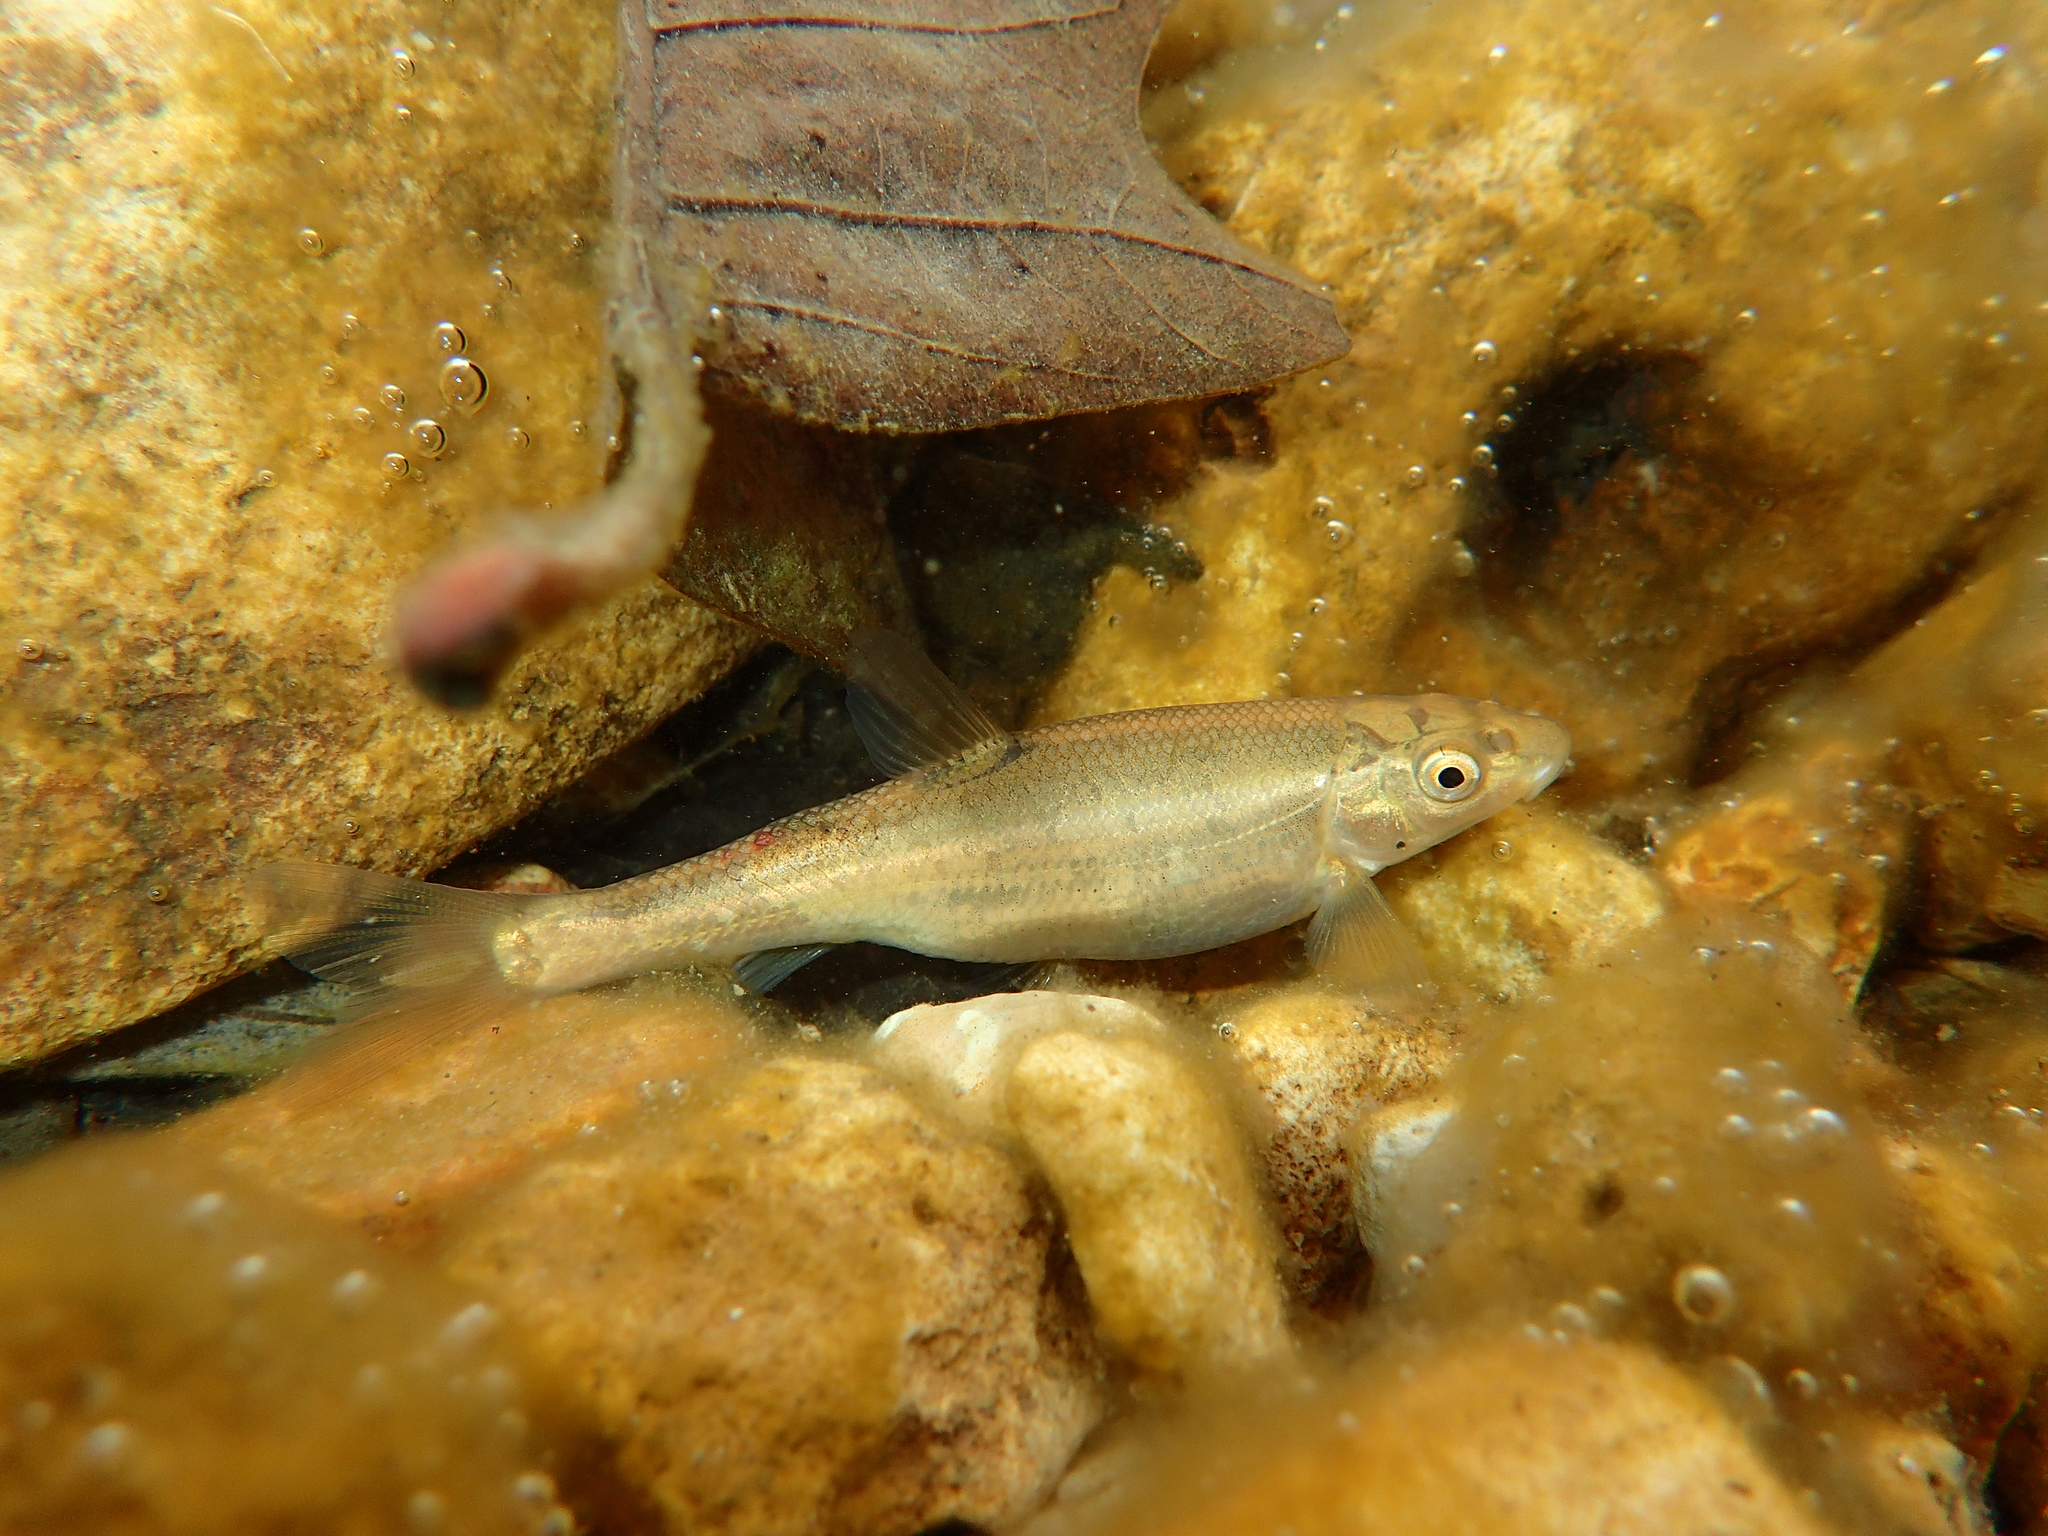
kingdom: Animalia
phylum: Chordata
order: Cypriniformes
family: Cyprinidae
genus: Campostoma
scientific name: Campostoma anomalum
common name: Central stoneroller
